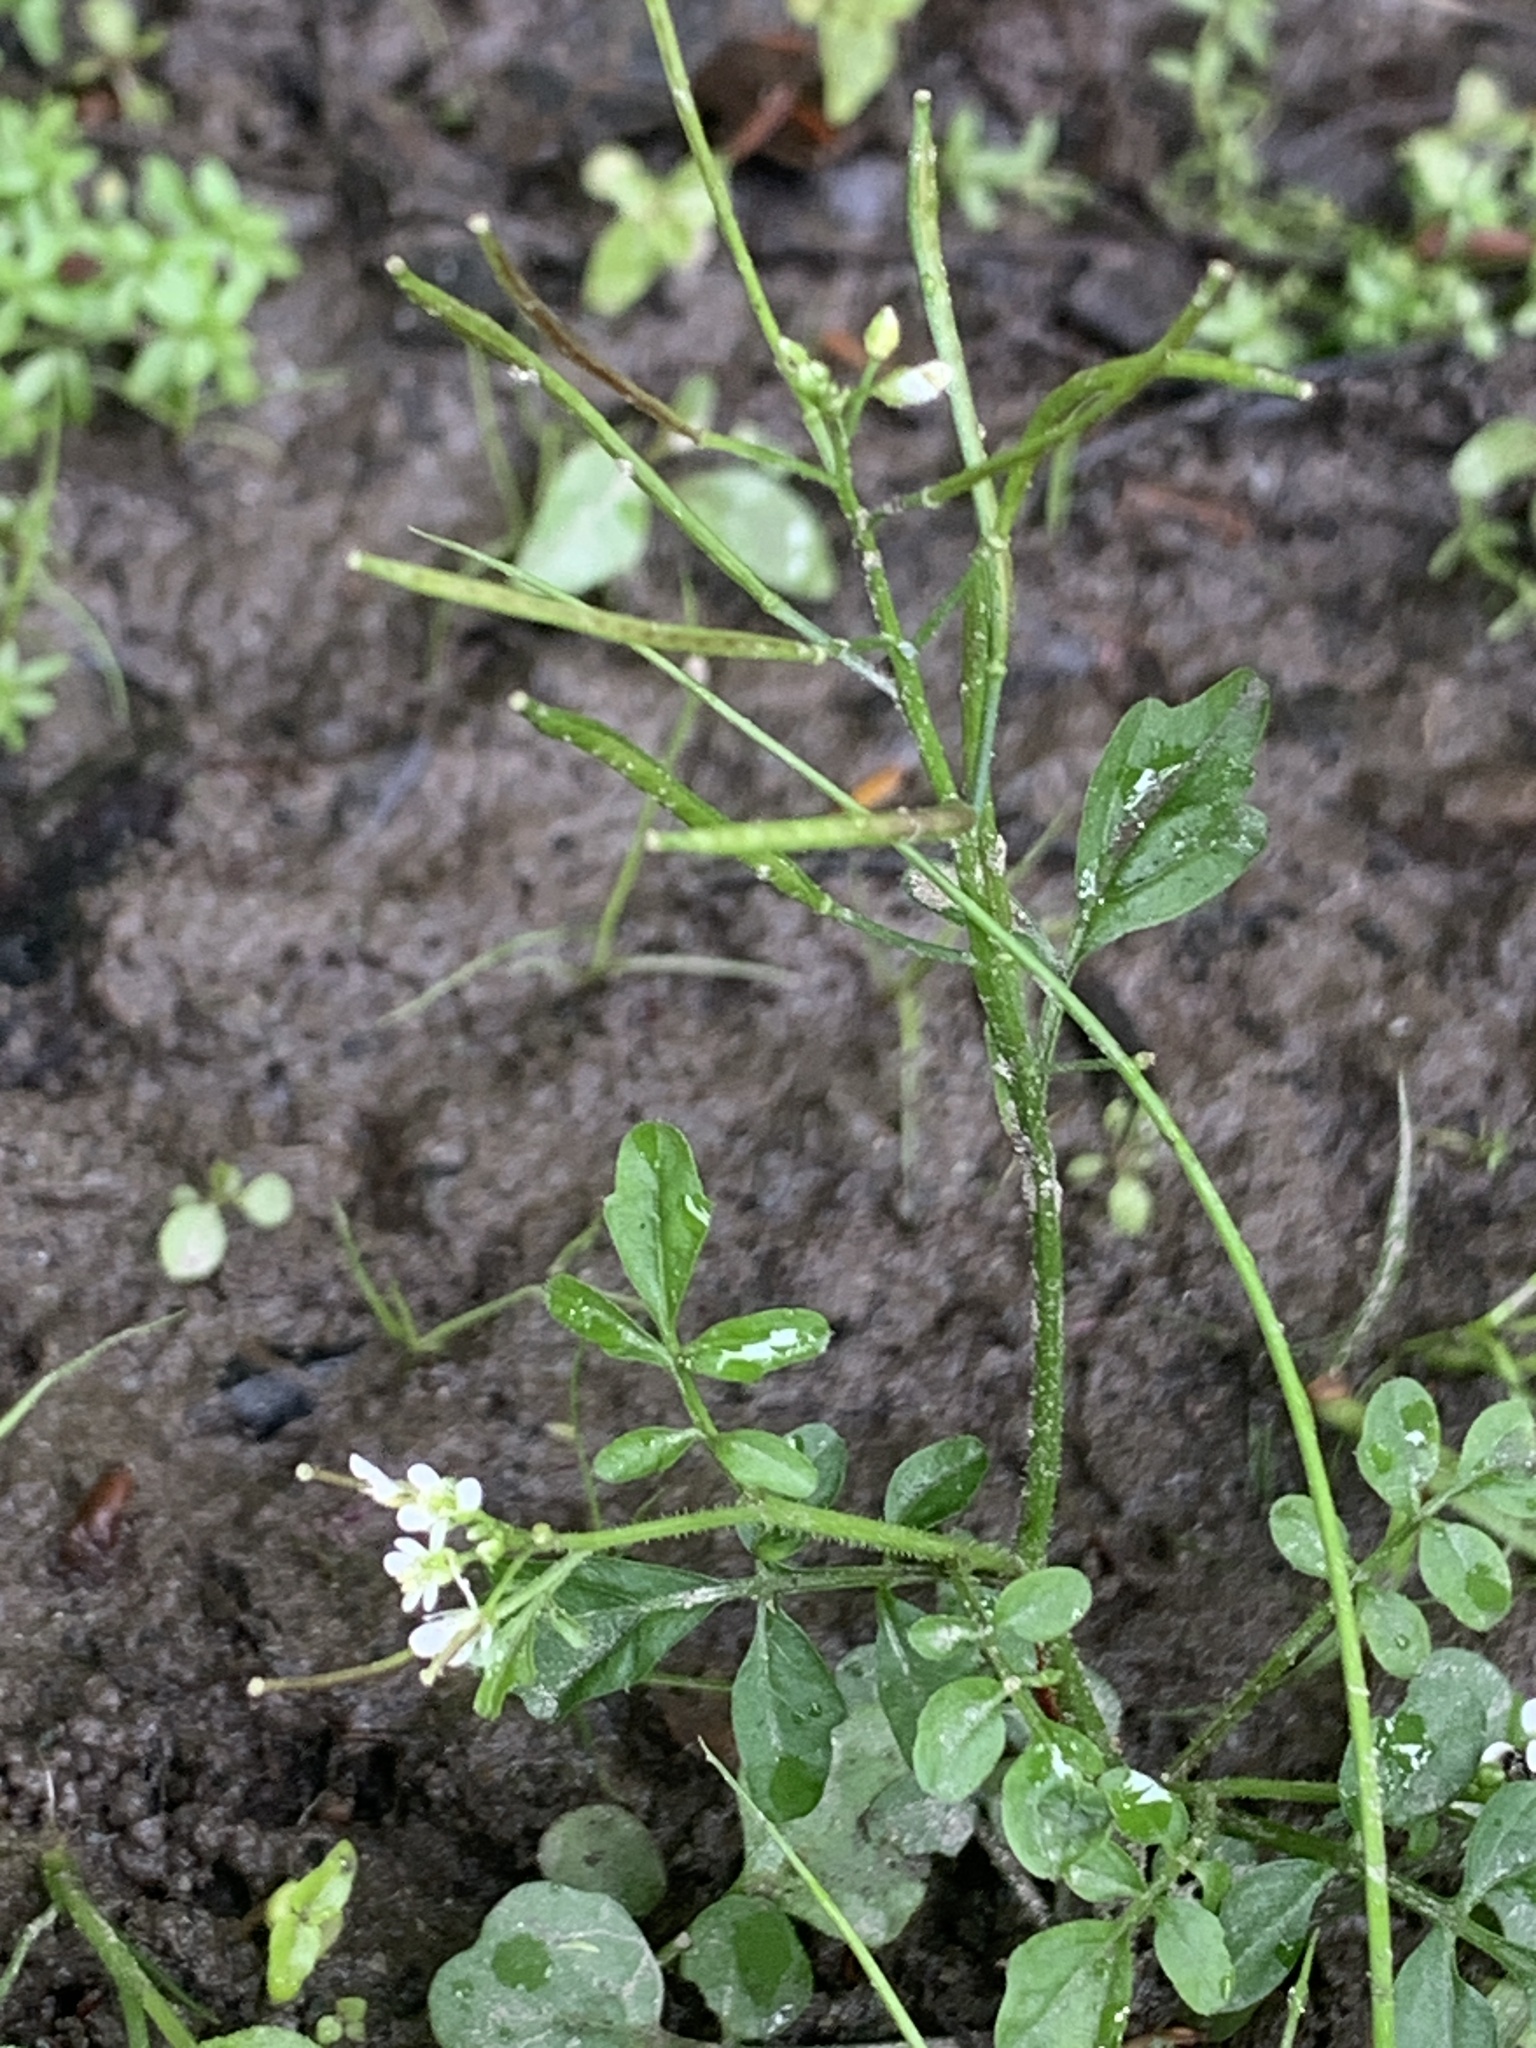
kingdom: Plantae
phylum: Tracheophyta
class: Magnoliopsida
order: Brassicales
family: Brassicaceae
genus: Cardamine
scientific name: Cardamine pensylvanica
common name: Pennsylvania bittercress
